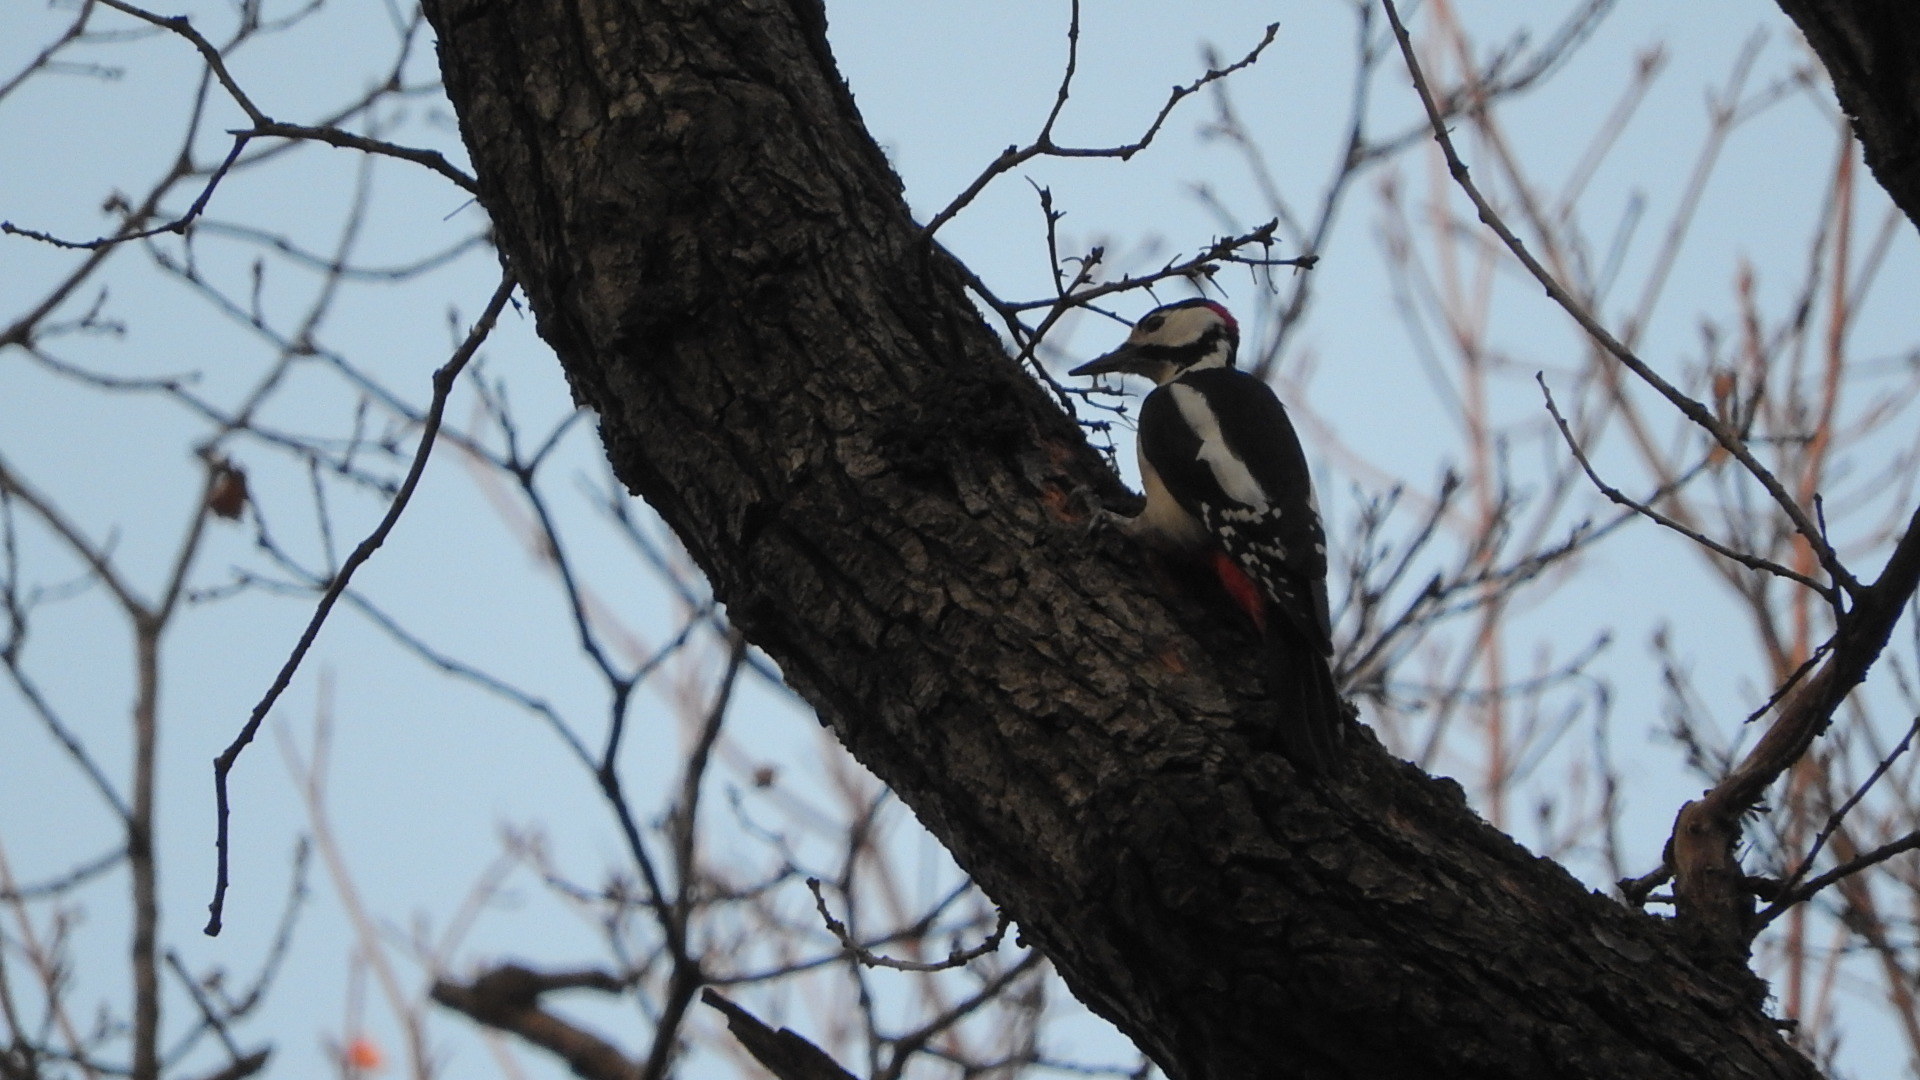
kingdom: Animalia
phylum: Chordata
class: Aves
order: Piciformes
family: Picidae
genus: Dendrocopos
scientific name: Dendrocopos major
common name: Great spotted woodpecker
